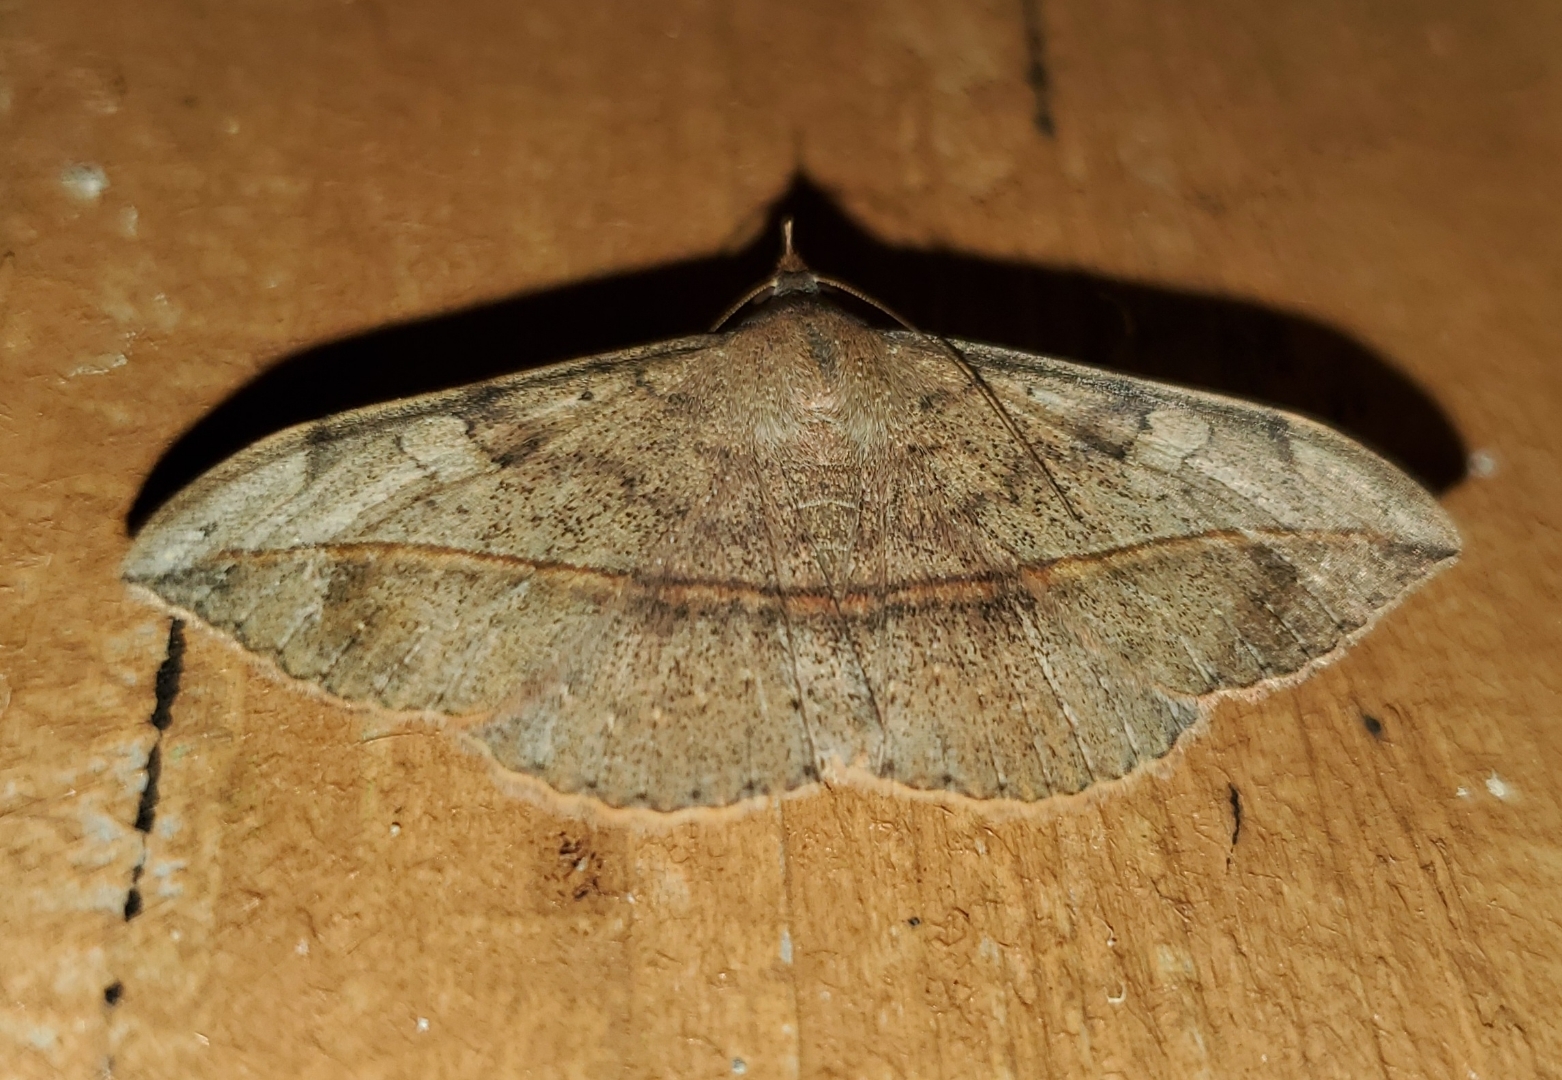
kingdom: Animalia
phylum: Arthropoda
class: Insecta
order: Lepidoptera
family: Erebidae
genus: Anticarsia
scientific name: Anticarsia gemmatalis
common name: Cutworm moth
